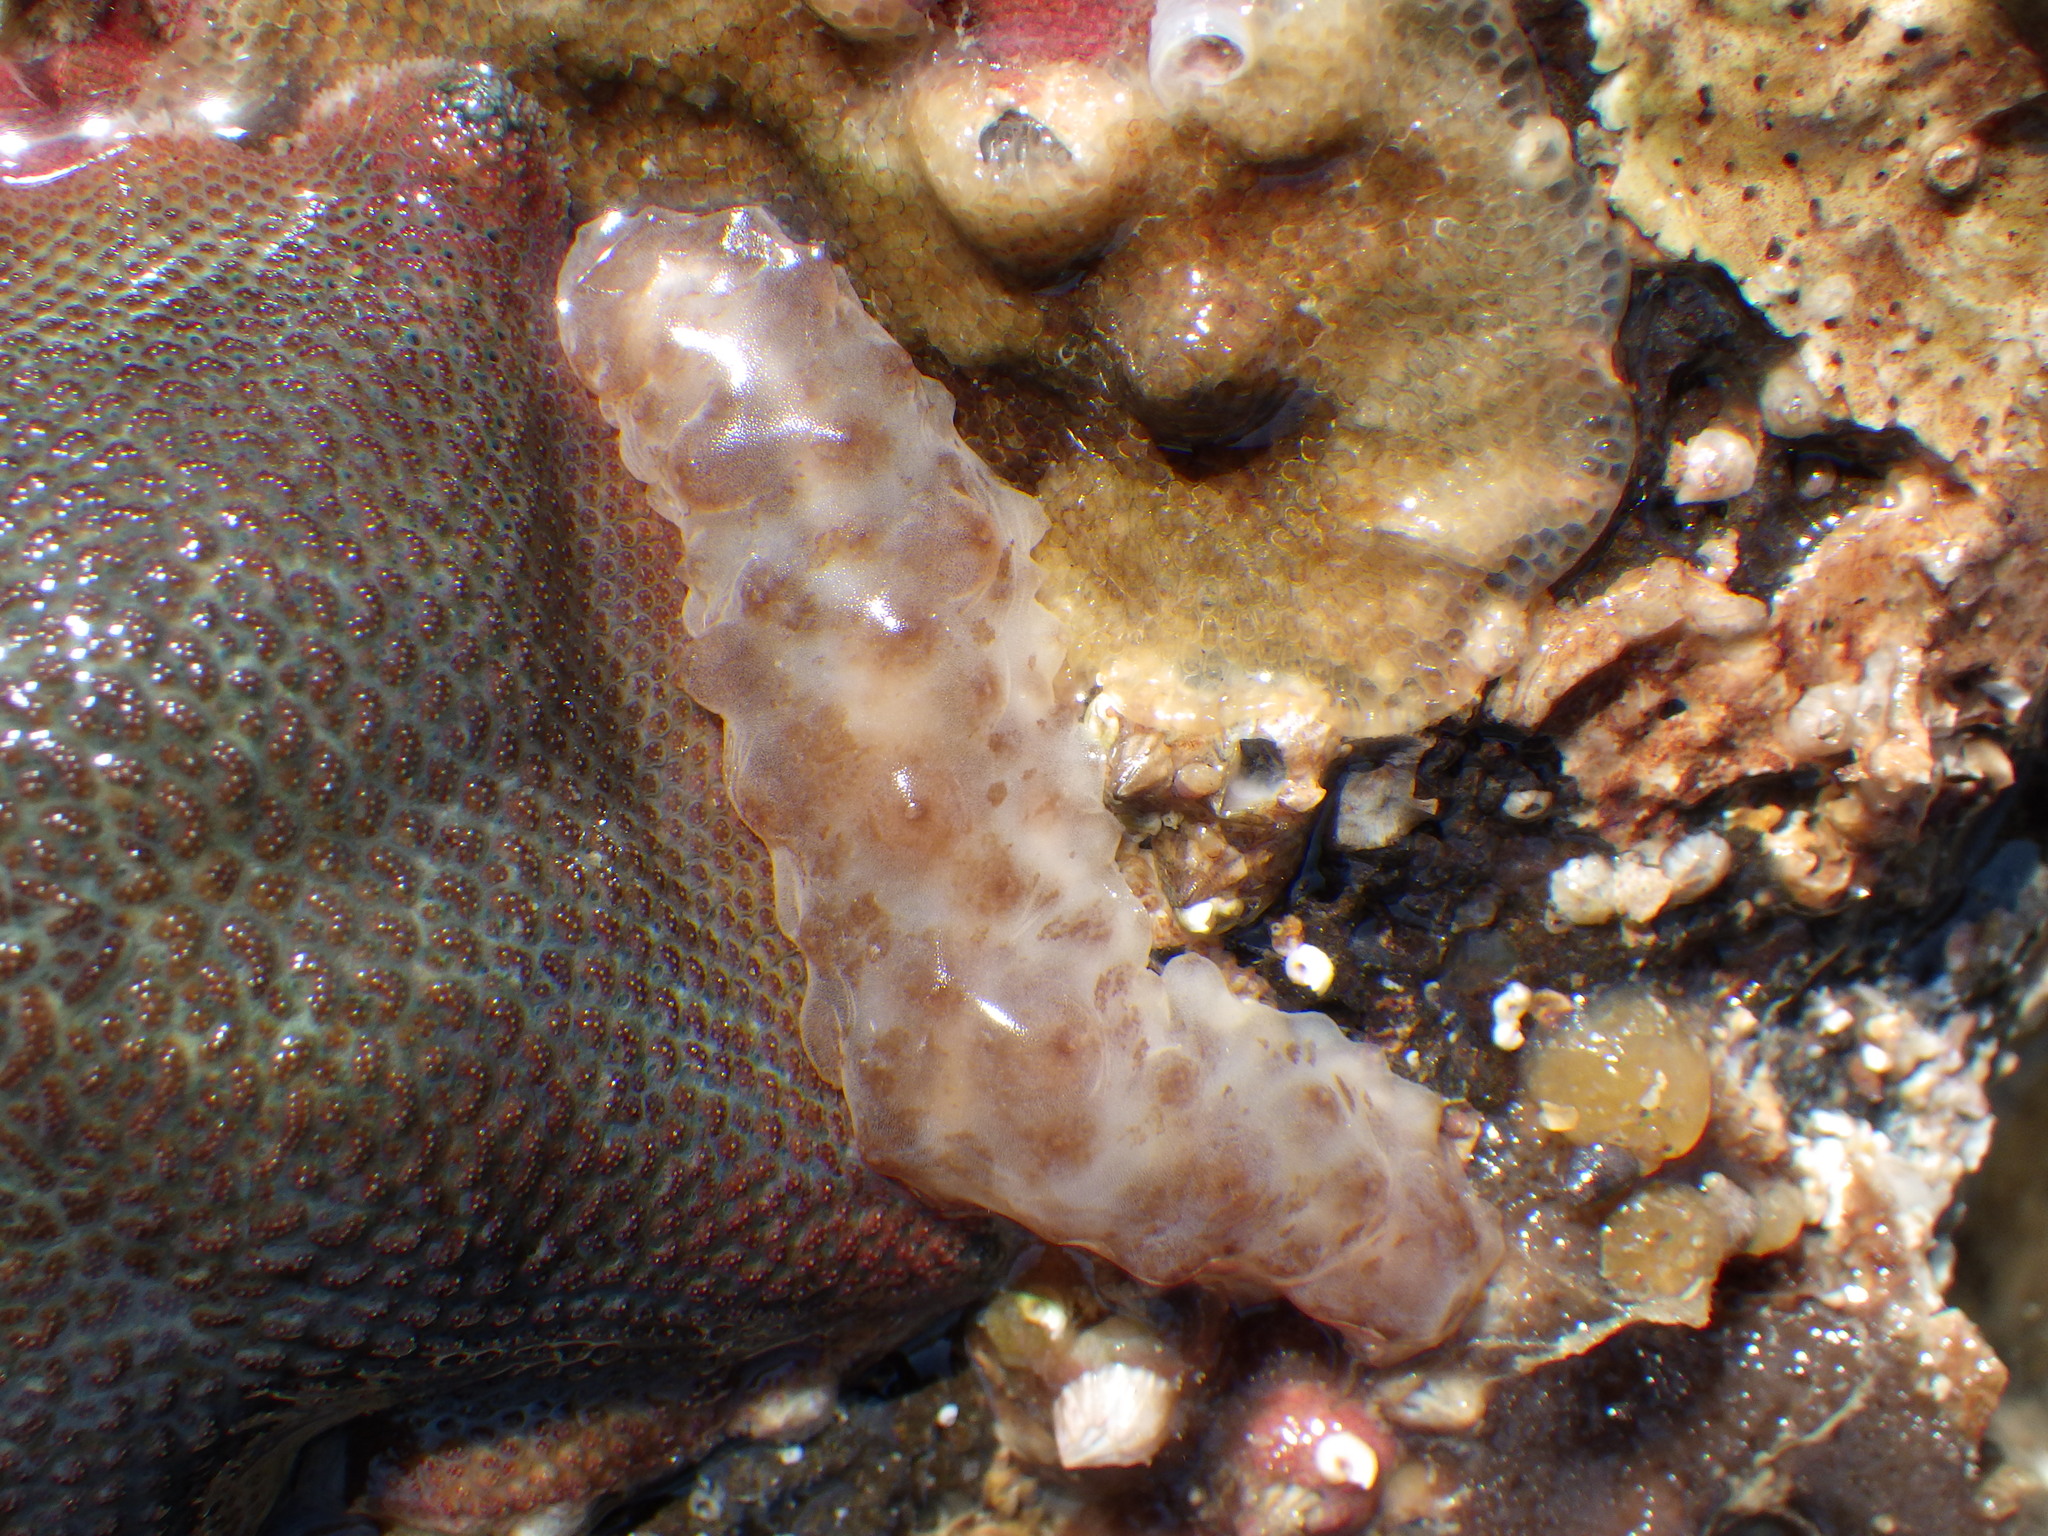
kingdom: Animalia
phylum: Echinodermata
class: Holothuroidea
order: Synallactida
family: Stichopodidae
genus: Australostichopus
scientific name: Australostichopus mollis
